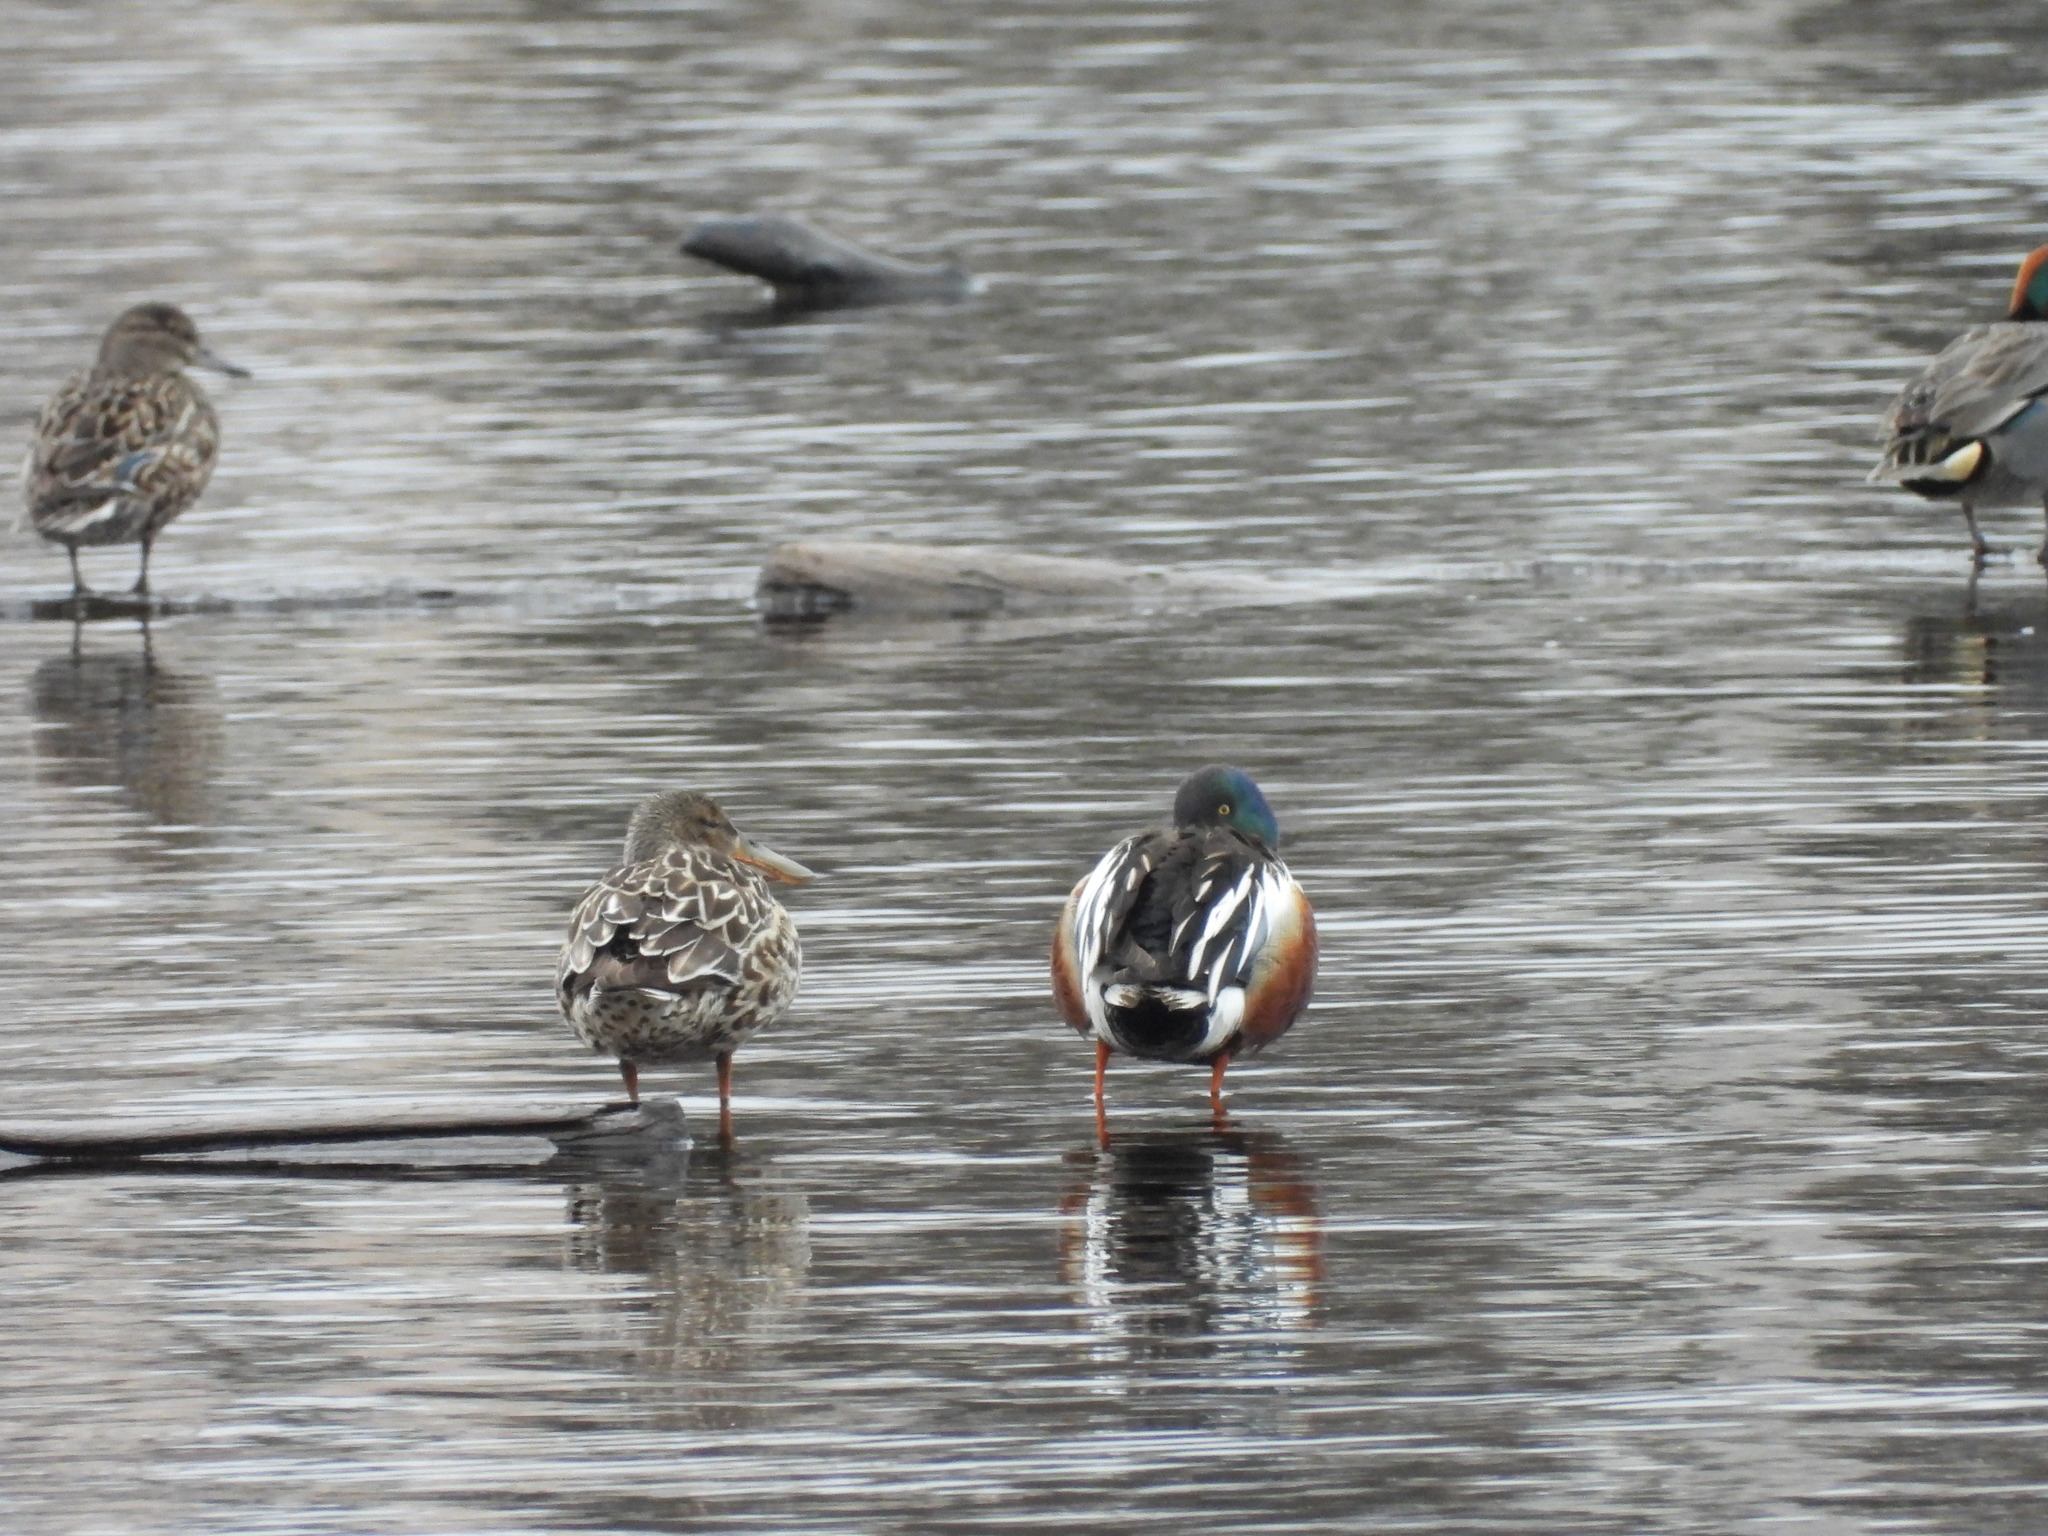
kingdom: Animalia
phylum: Chordata
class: Aves
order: Anseriformes
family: Anatidae
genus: Spatula
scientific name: Spatula clypeata
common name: Northern shoveler
